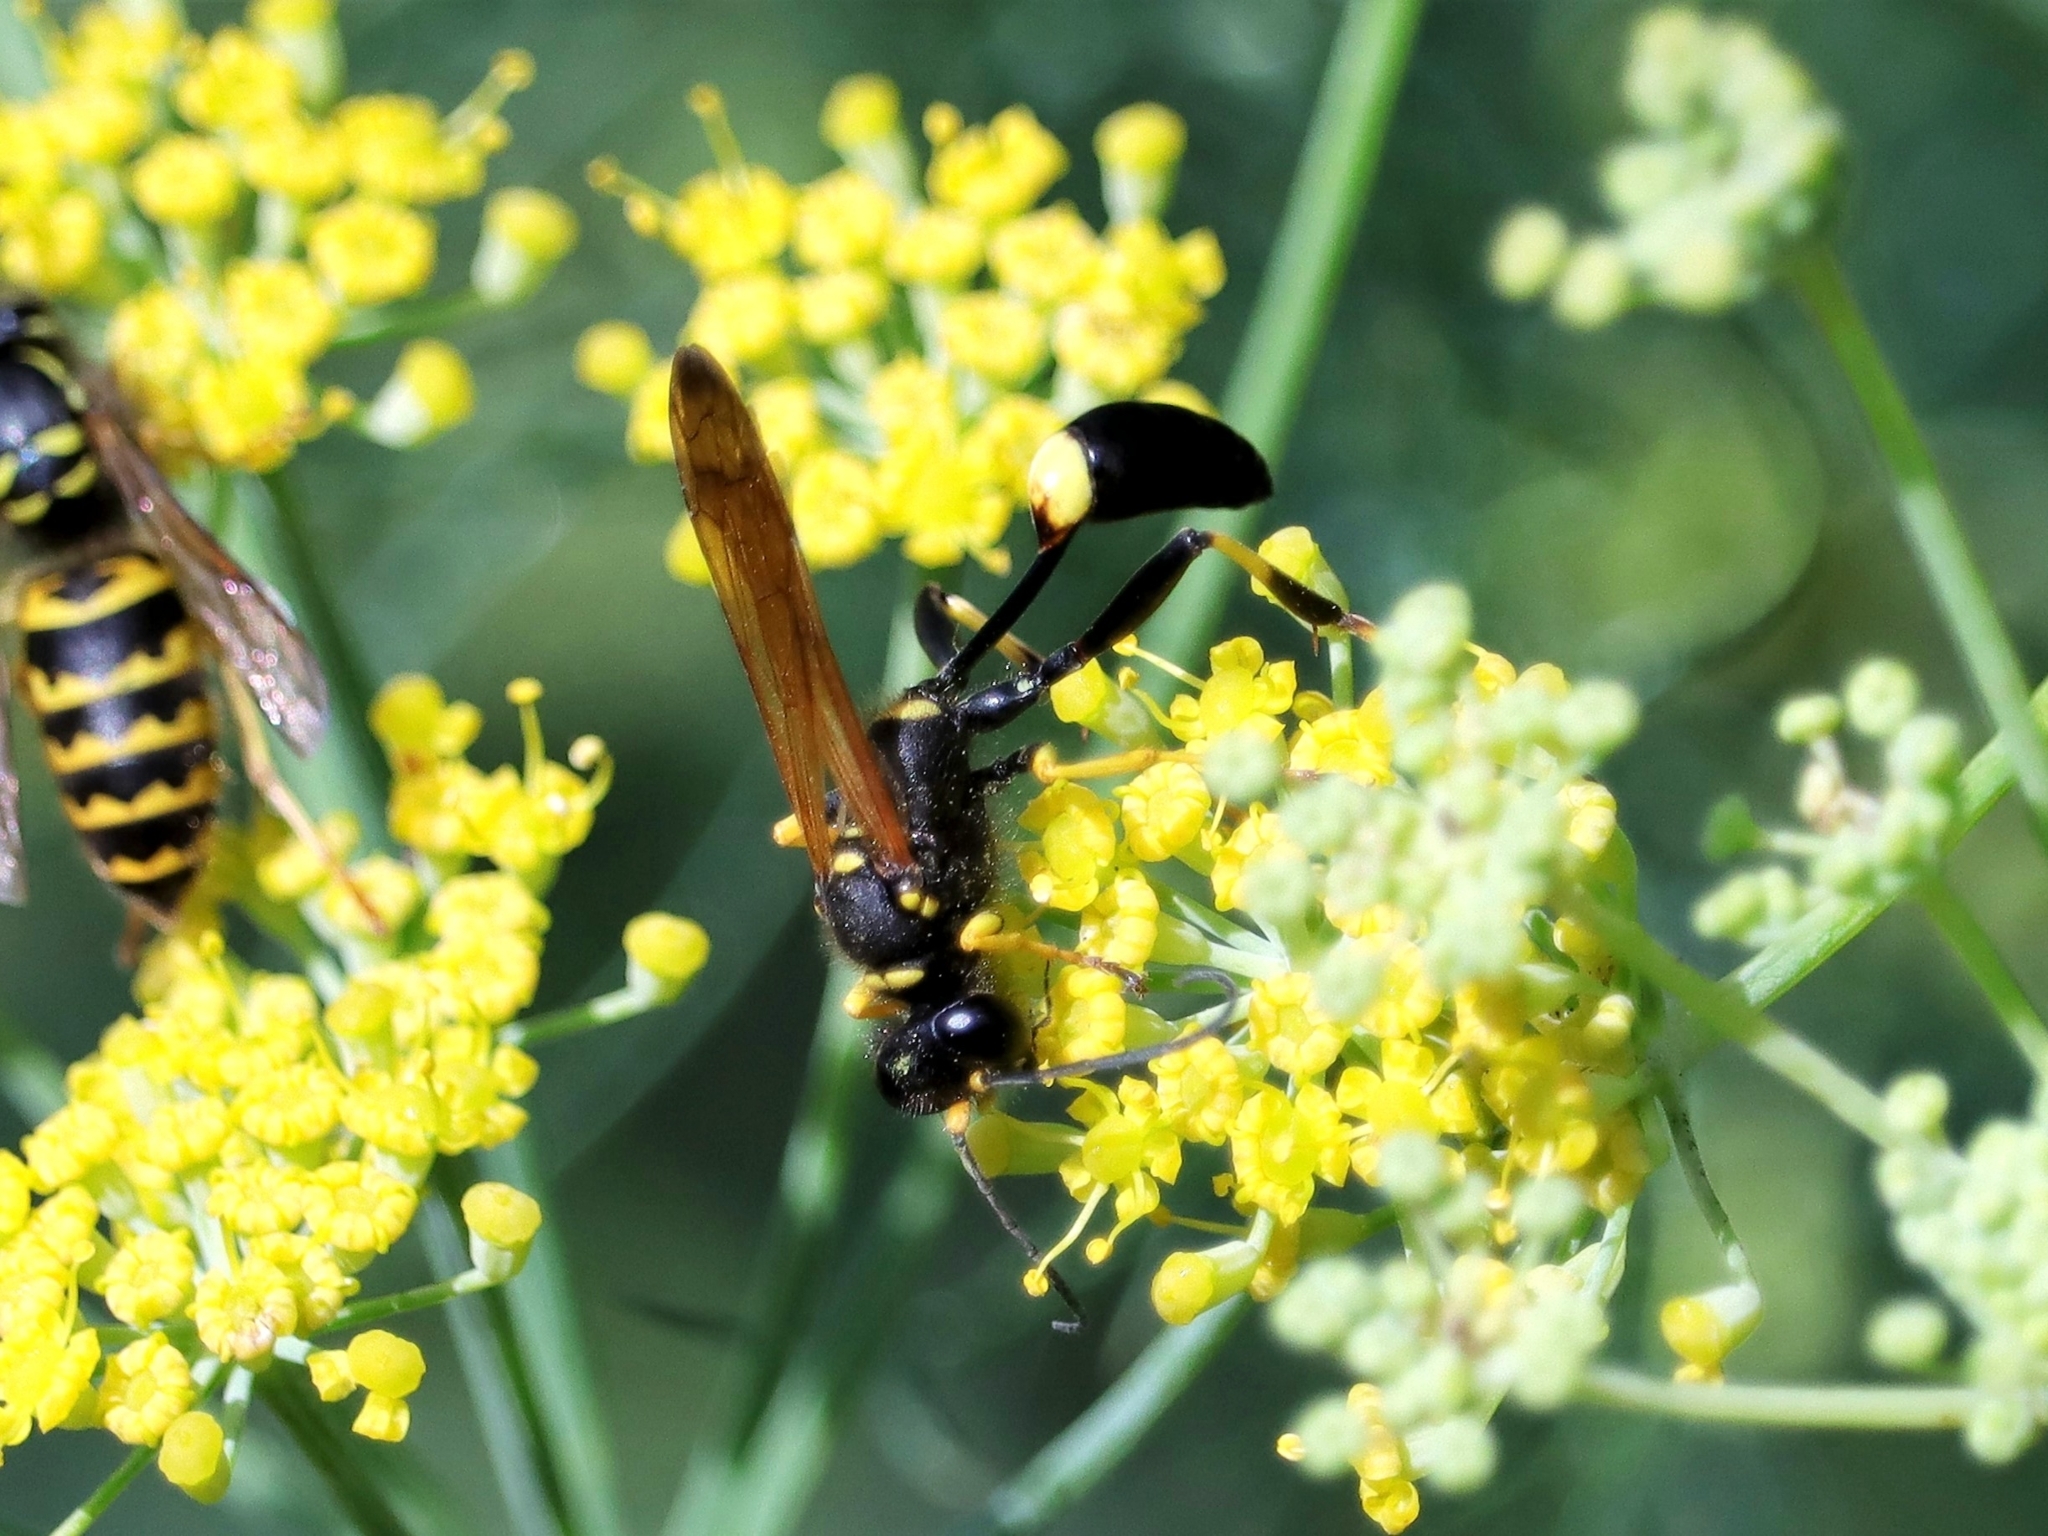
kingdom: Animalia
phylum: Arthropoda
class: Insecta
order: Hymenoptera
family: Sphecidae
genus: Sceliphron
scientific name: Sceliphron caementarium
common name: Mud dauber
